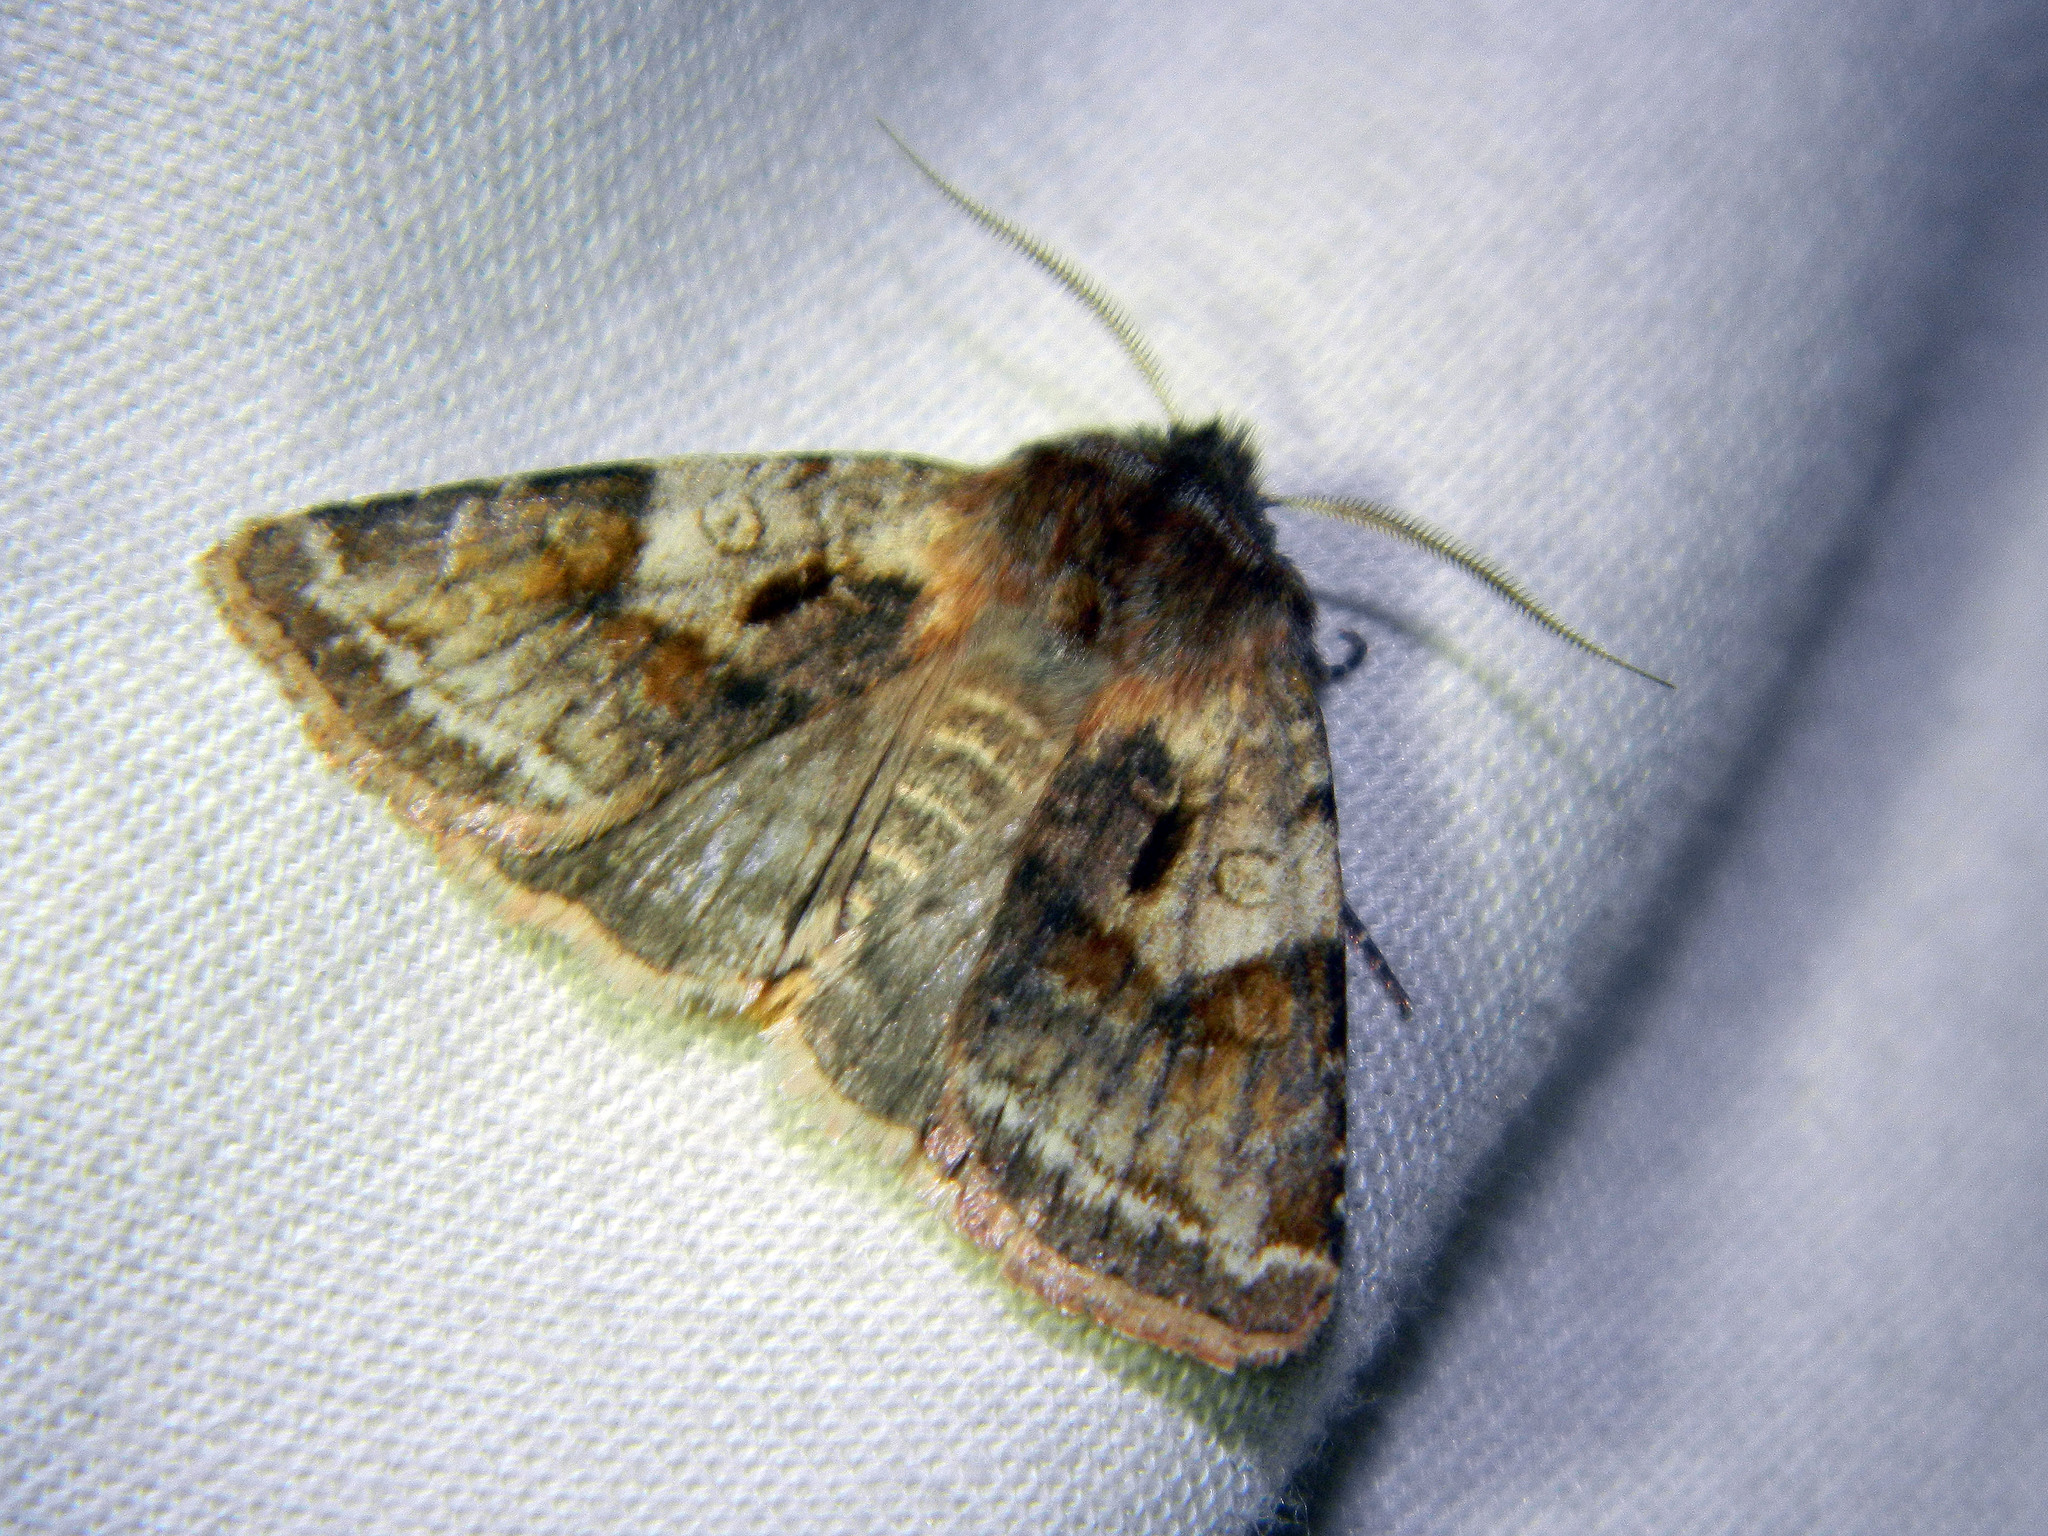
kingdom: Animalia
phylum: Arthropoda
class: Insecta
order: Lepidoptera
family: Noctuidae
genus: Cerastis
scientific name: Cerastis salicarum
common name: Willow dart
